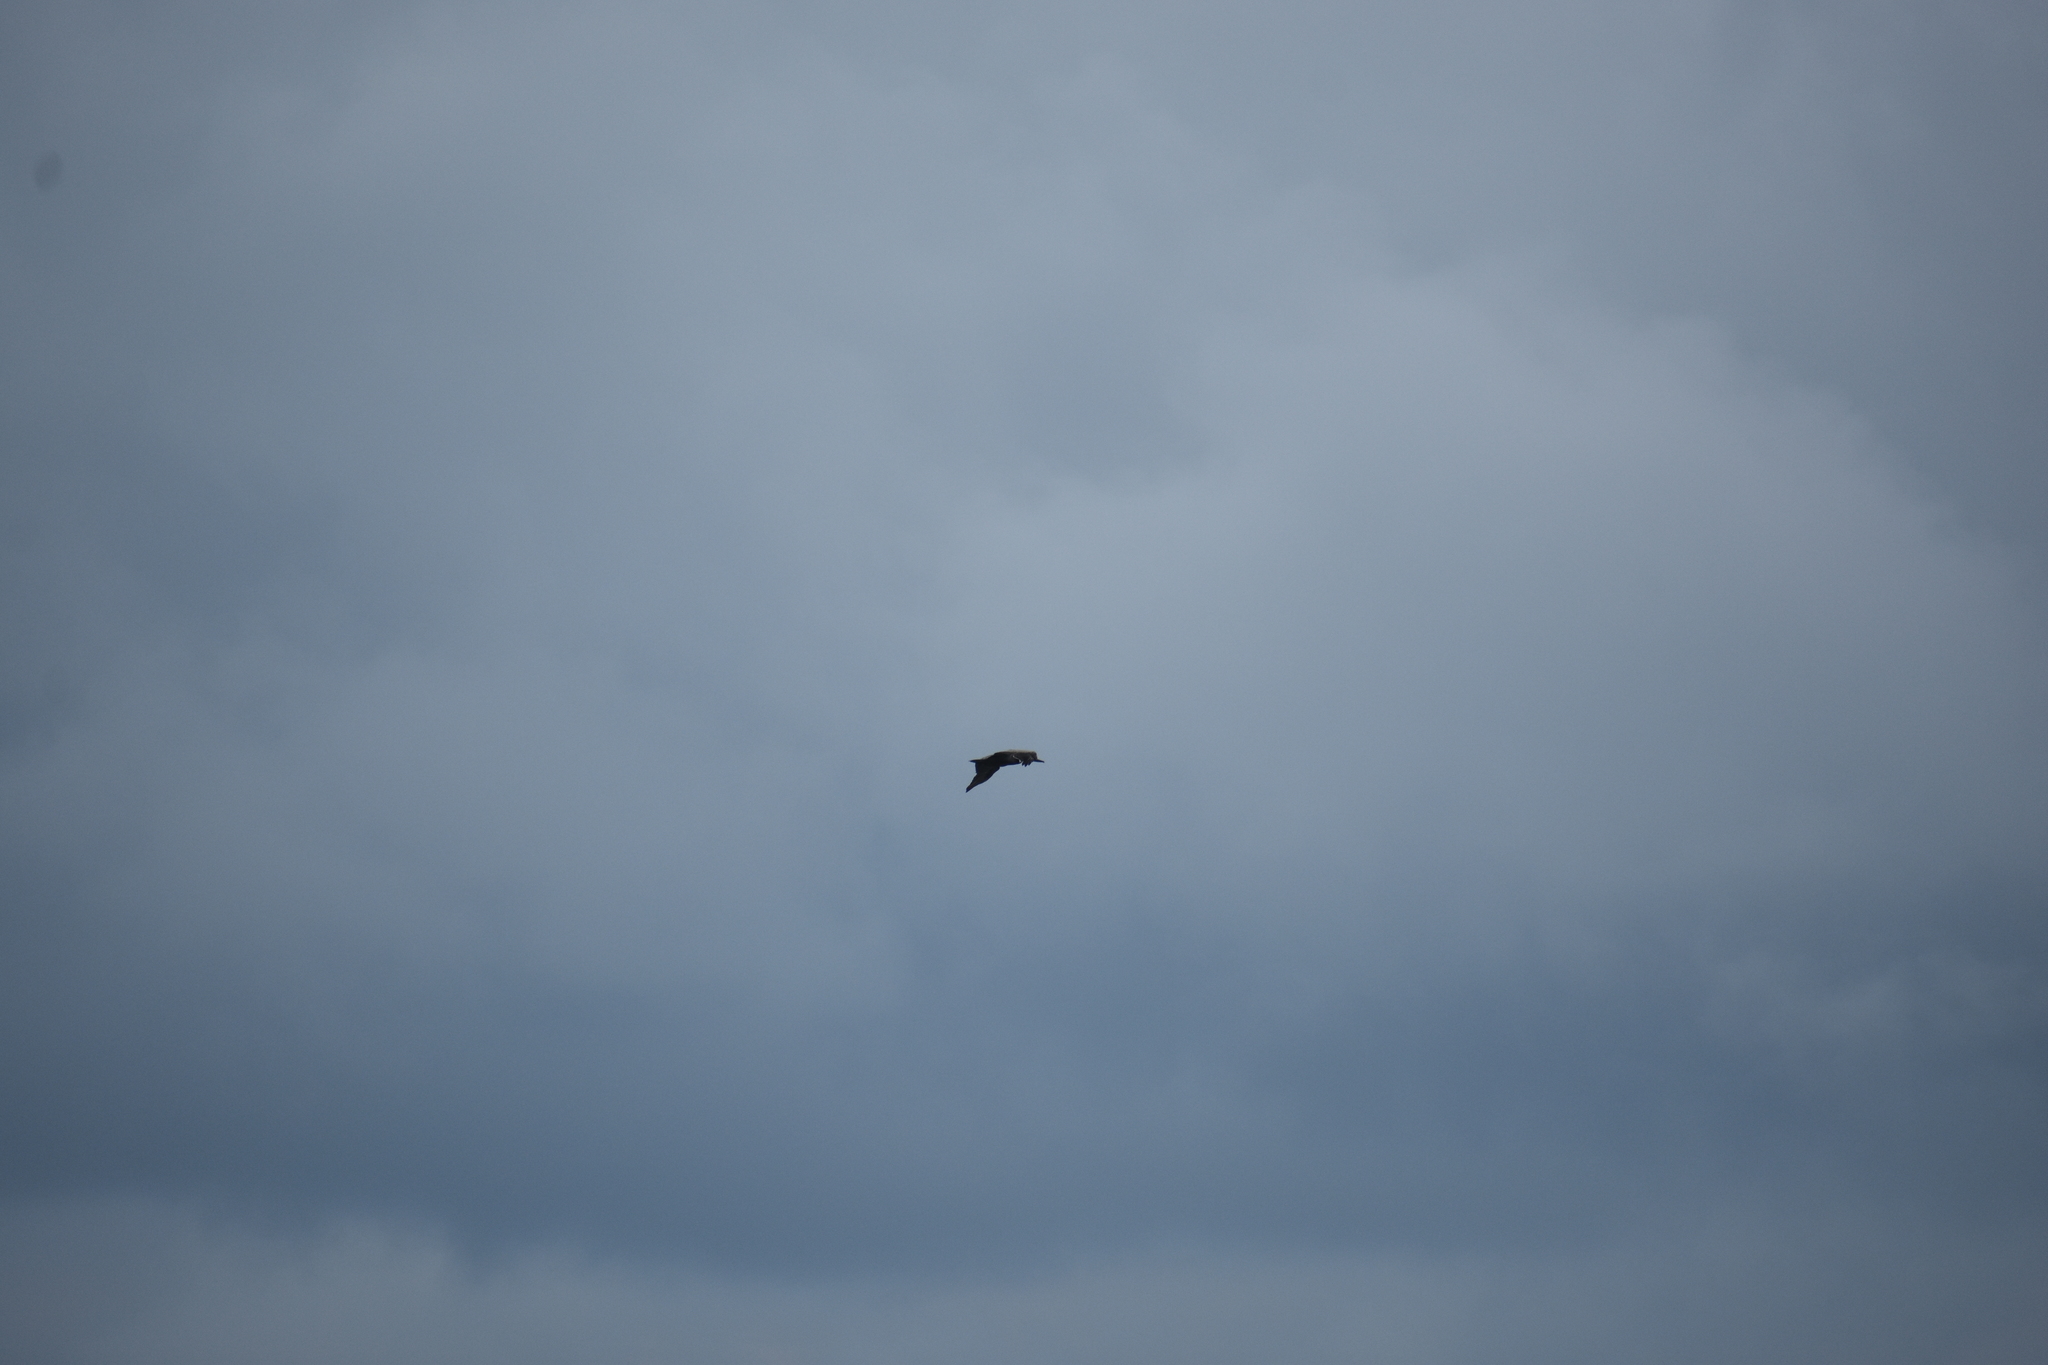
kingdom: Animalia
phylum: Chordata
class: Aves
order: Pelecaniformes
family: Pelecanidae
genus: Pelecanus
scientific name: Pelecanus occidentalis
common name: Brown pelican
